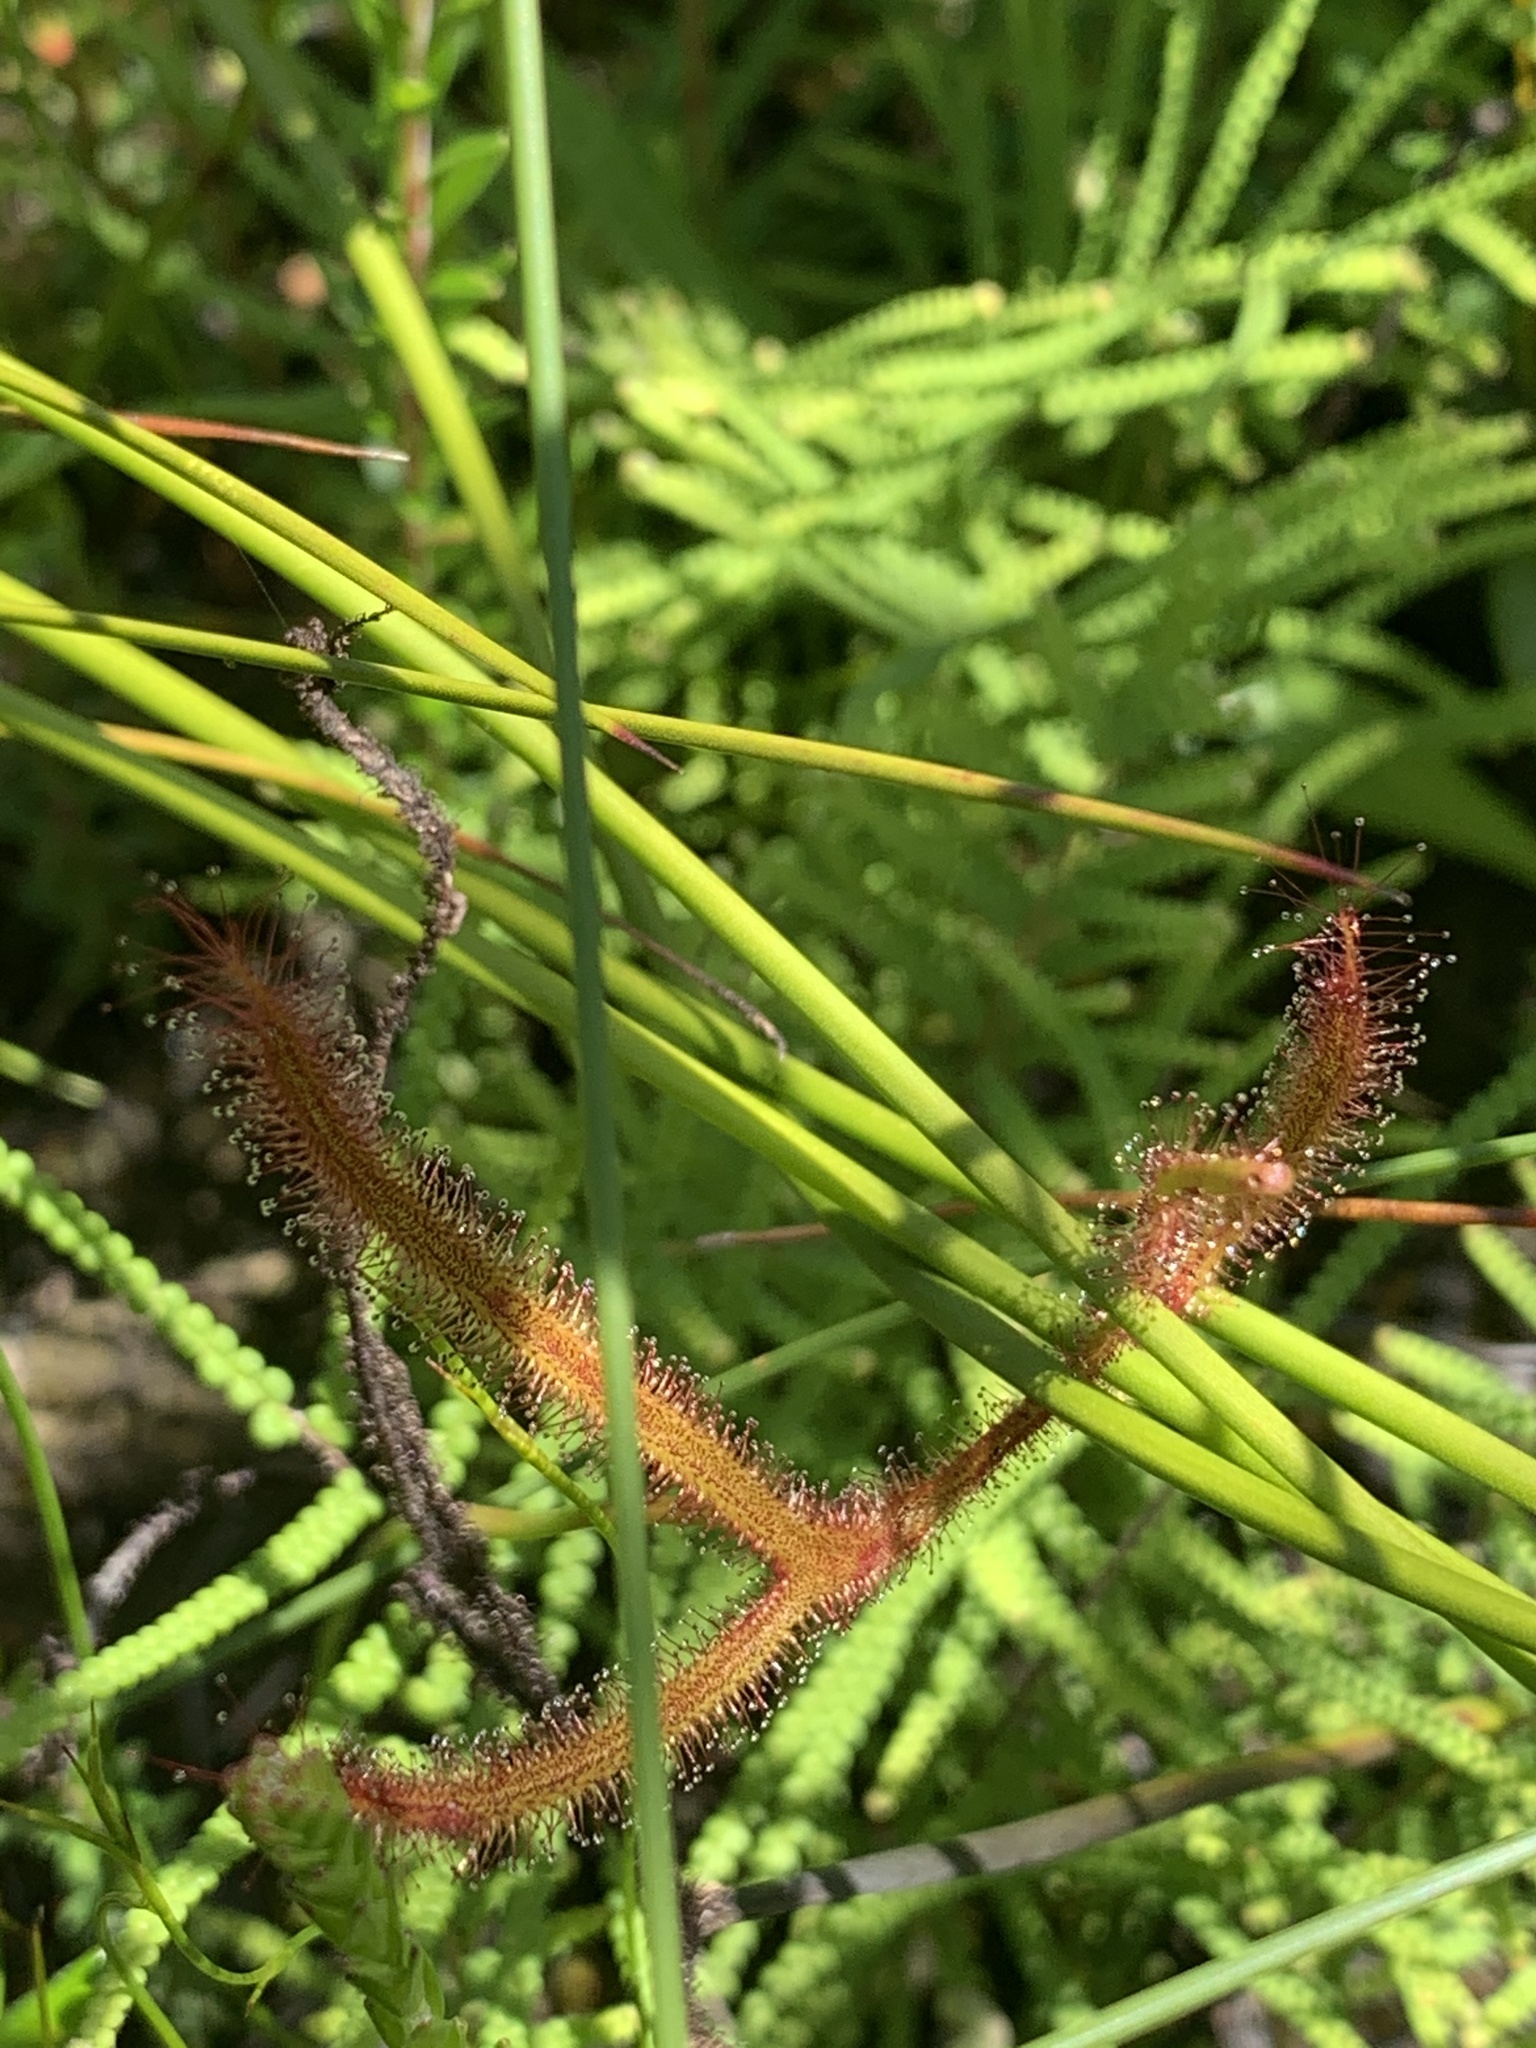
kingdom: Plantae
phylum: Tracheophyta
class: Magnoliopsida
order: Caryophyllales
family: Droseraceae
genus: Drosera
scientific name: Drosera binata
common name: Forked sundew
